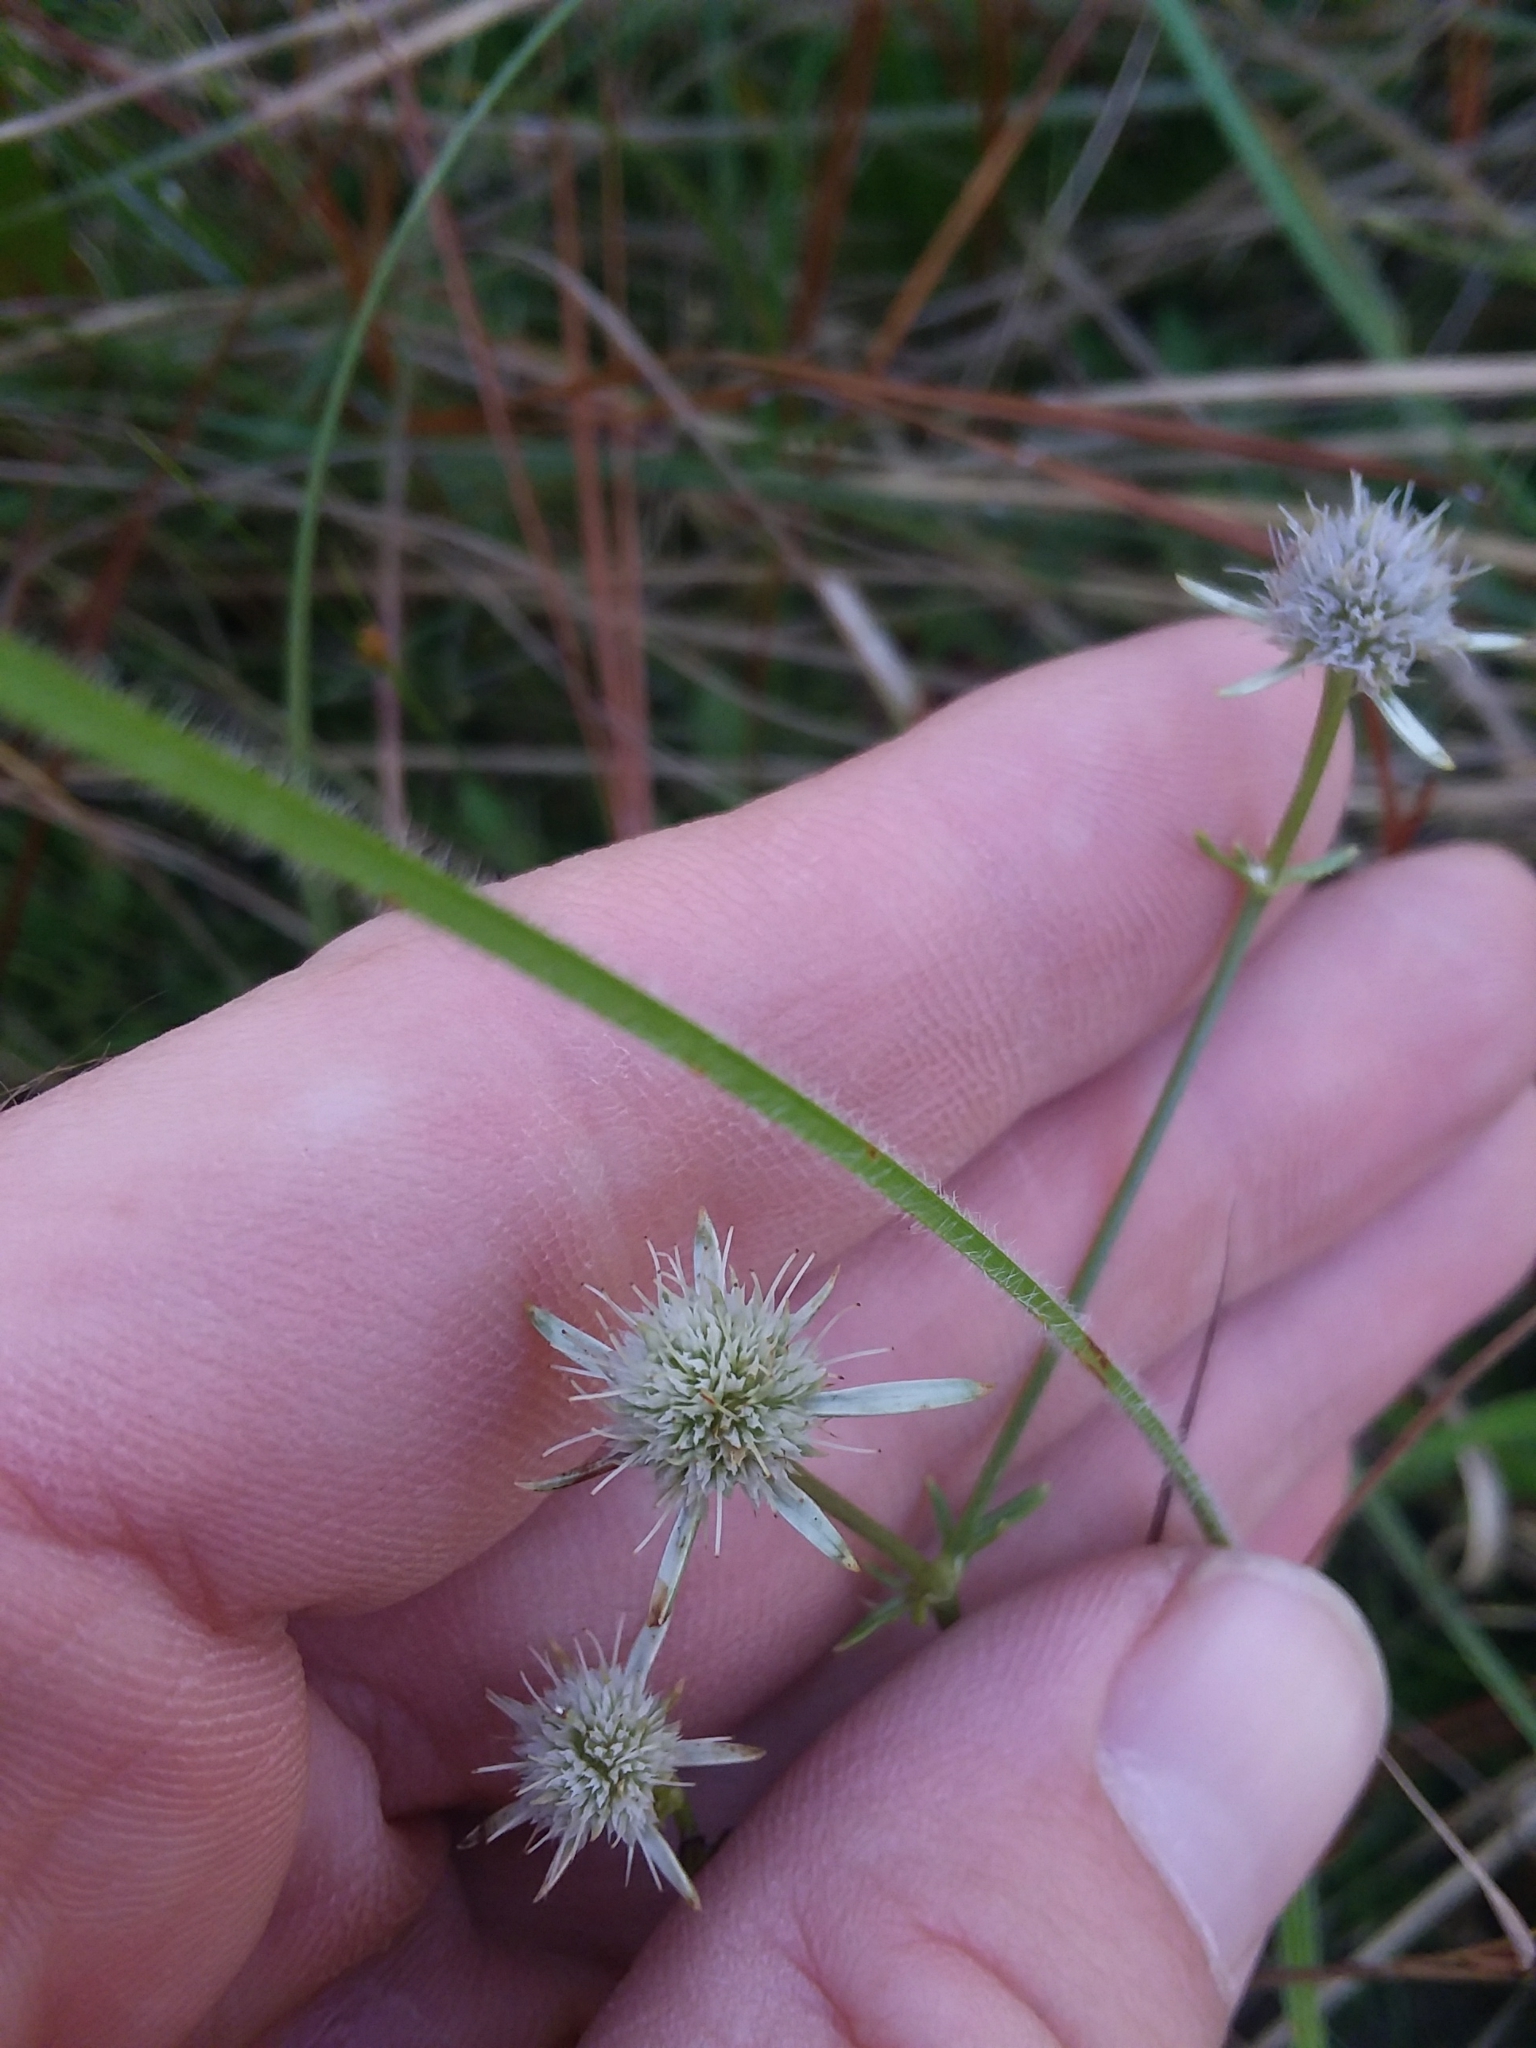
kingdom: Plantae
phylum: Tracheophyta
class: Magnoliopsida
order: Apiales
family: Apiaceae
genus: Eryngium
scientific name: Eryngium integrifolium
